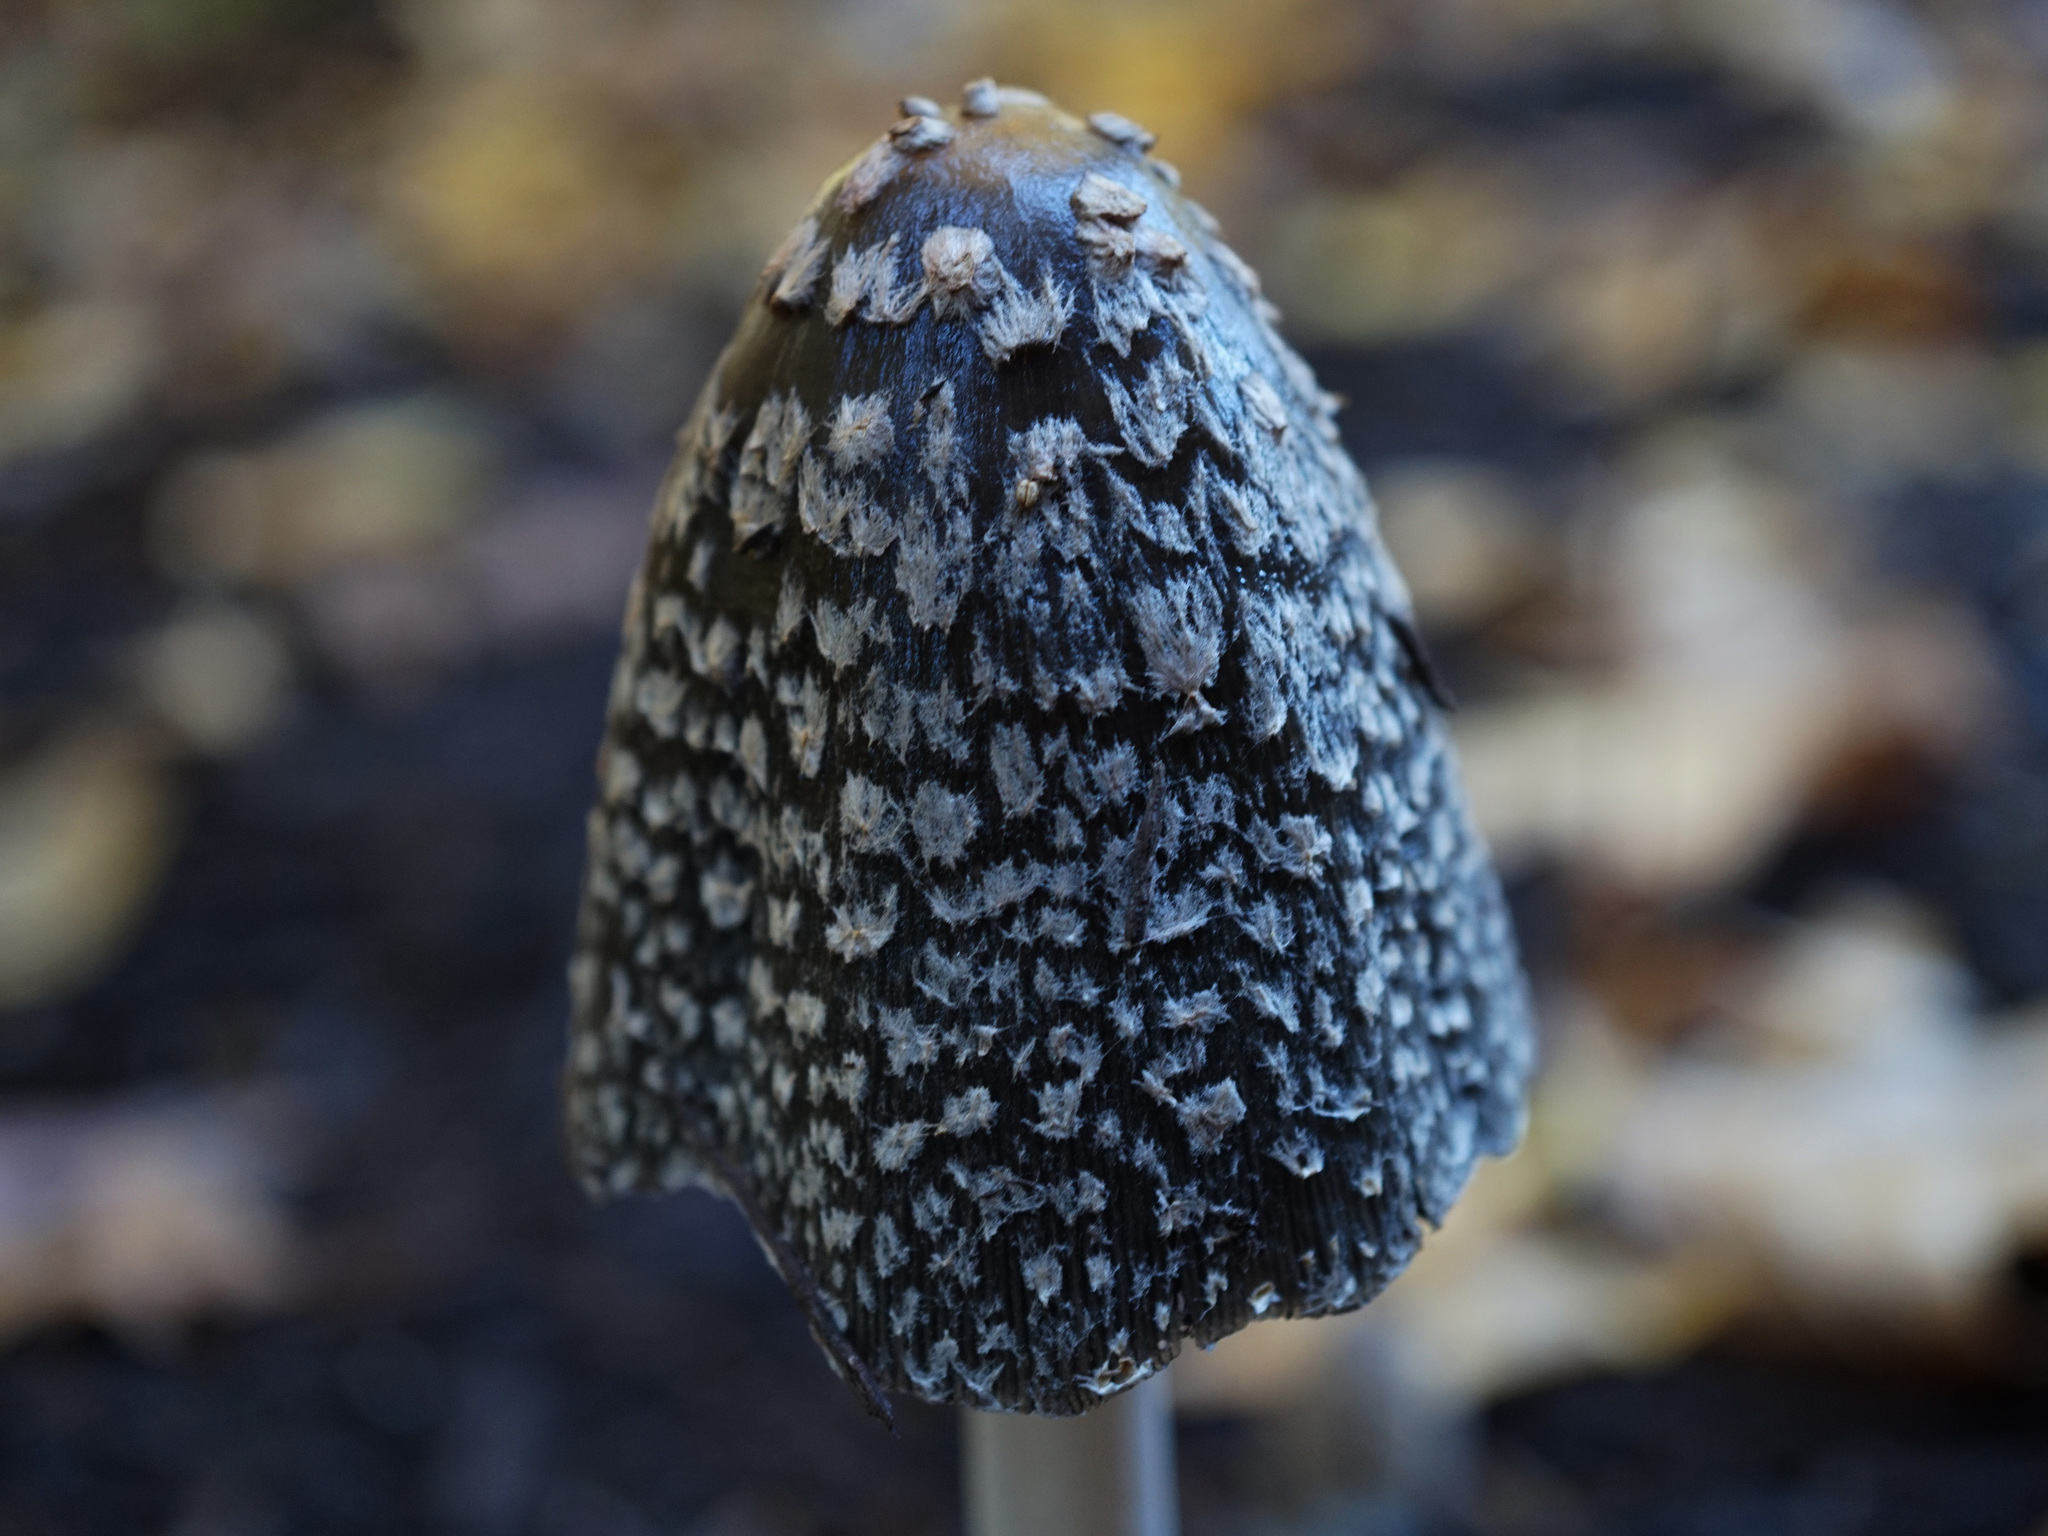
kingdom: Fungi
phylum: Basidiomycota
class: Agaricomycetes
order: Agaricales
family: Psathyrellaceae
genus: Coprinopsis
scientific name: Coprinopsis picacea
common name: Magpie inkcap
